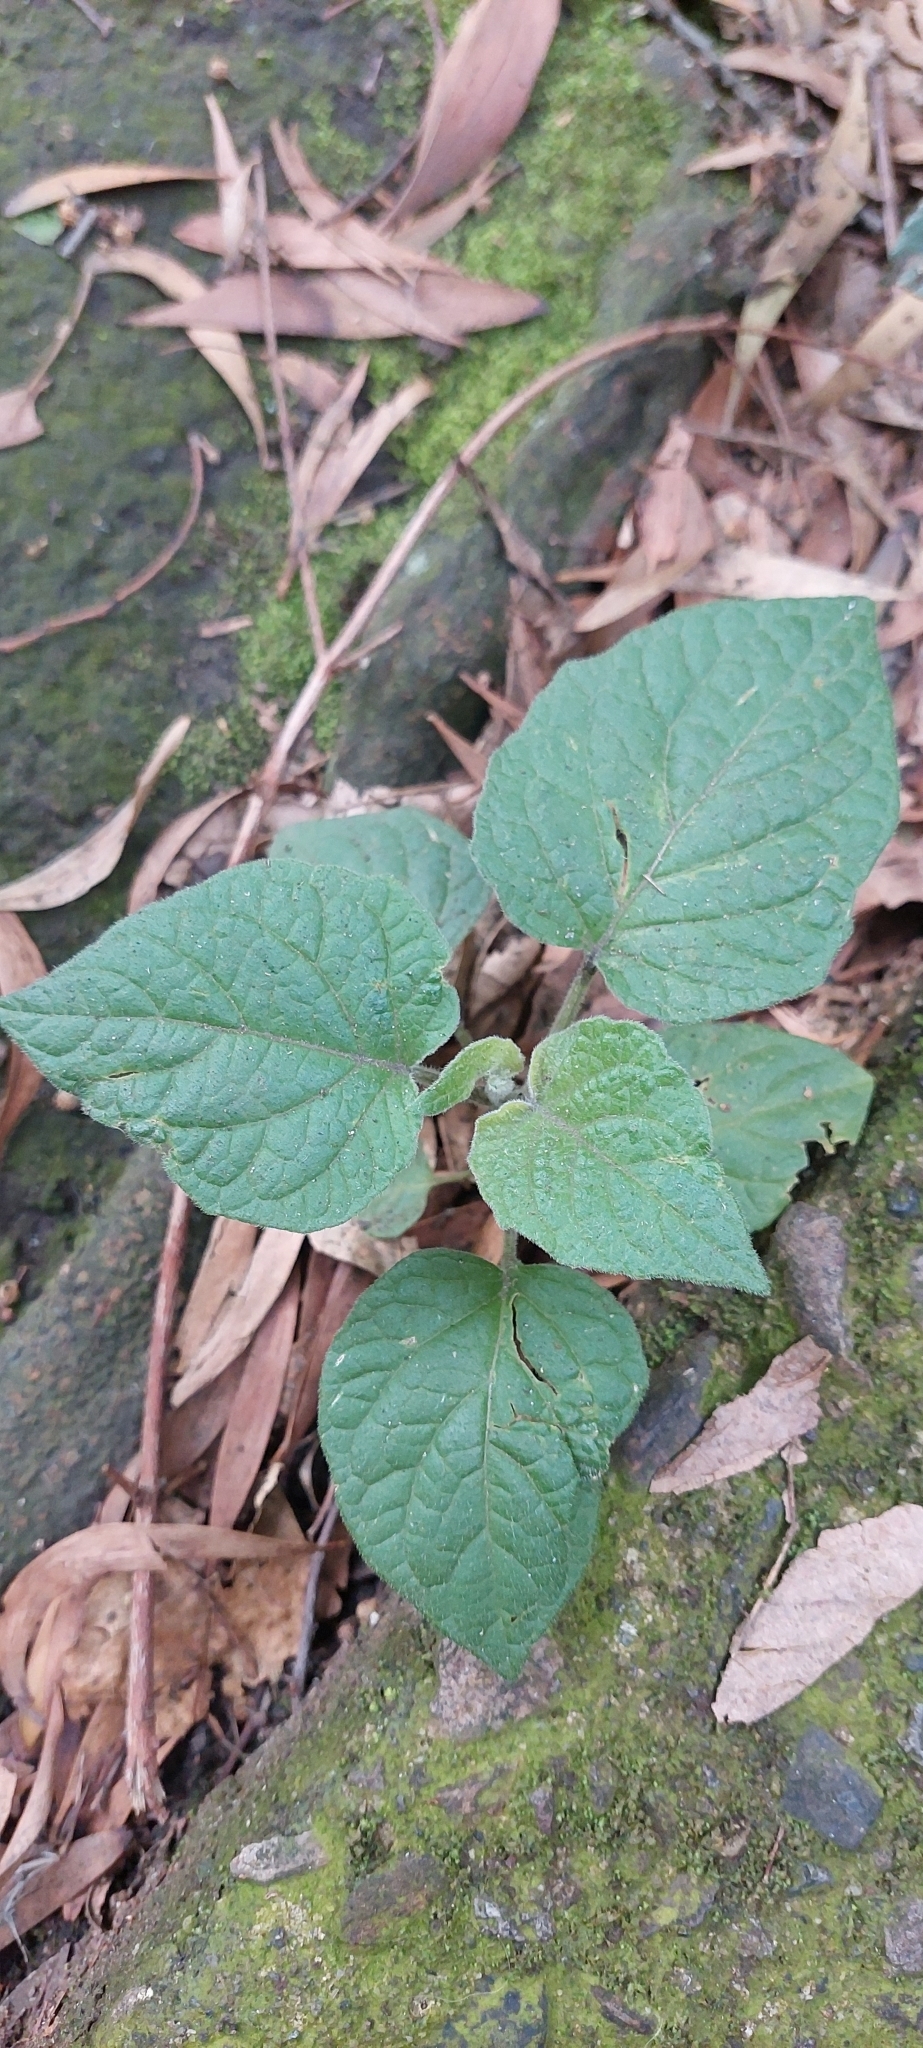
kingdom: Plantae
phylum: Tracheophyta
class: Magnoliopsida
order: Solanales
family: Solanaceae
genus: Physalis
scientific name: Physalis peruviana
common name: Cape-gooseberry
